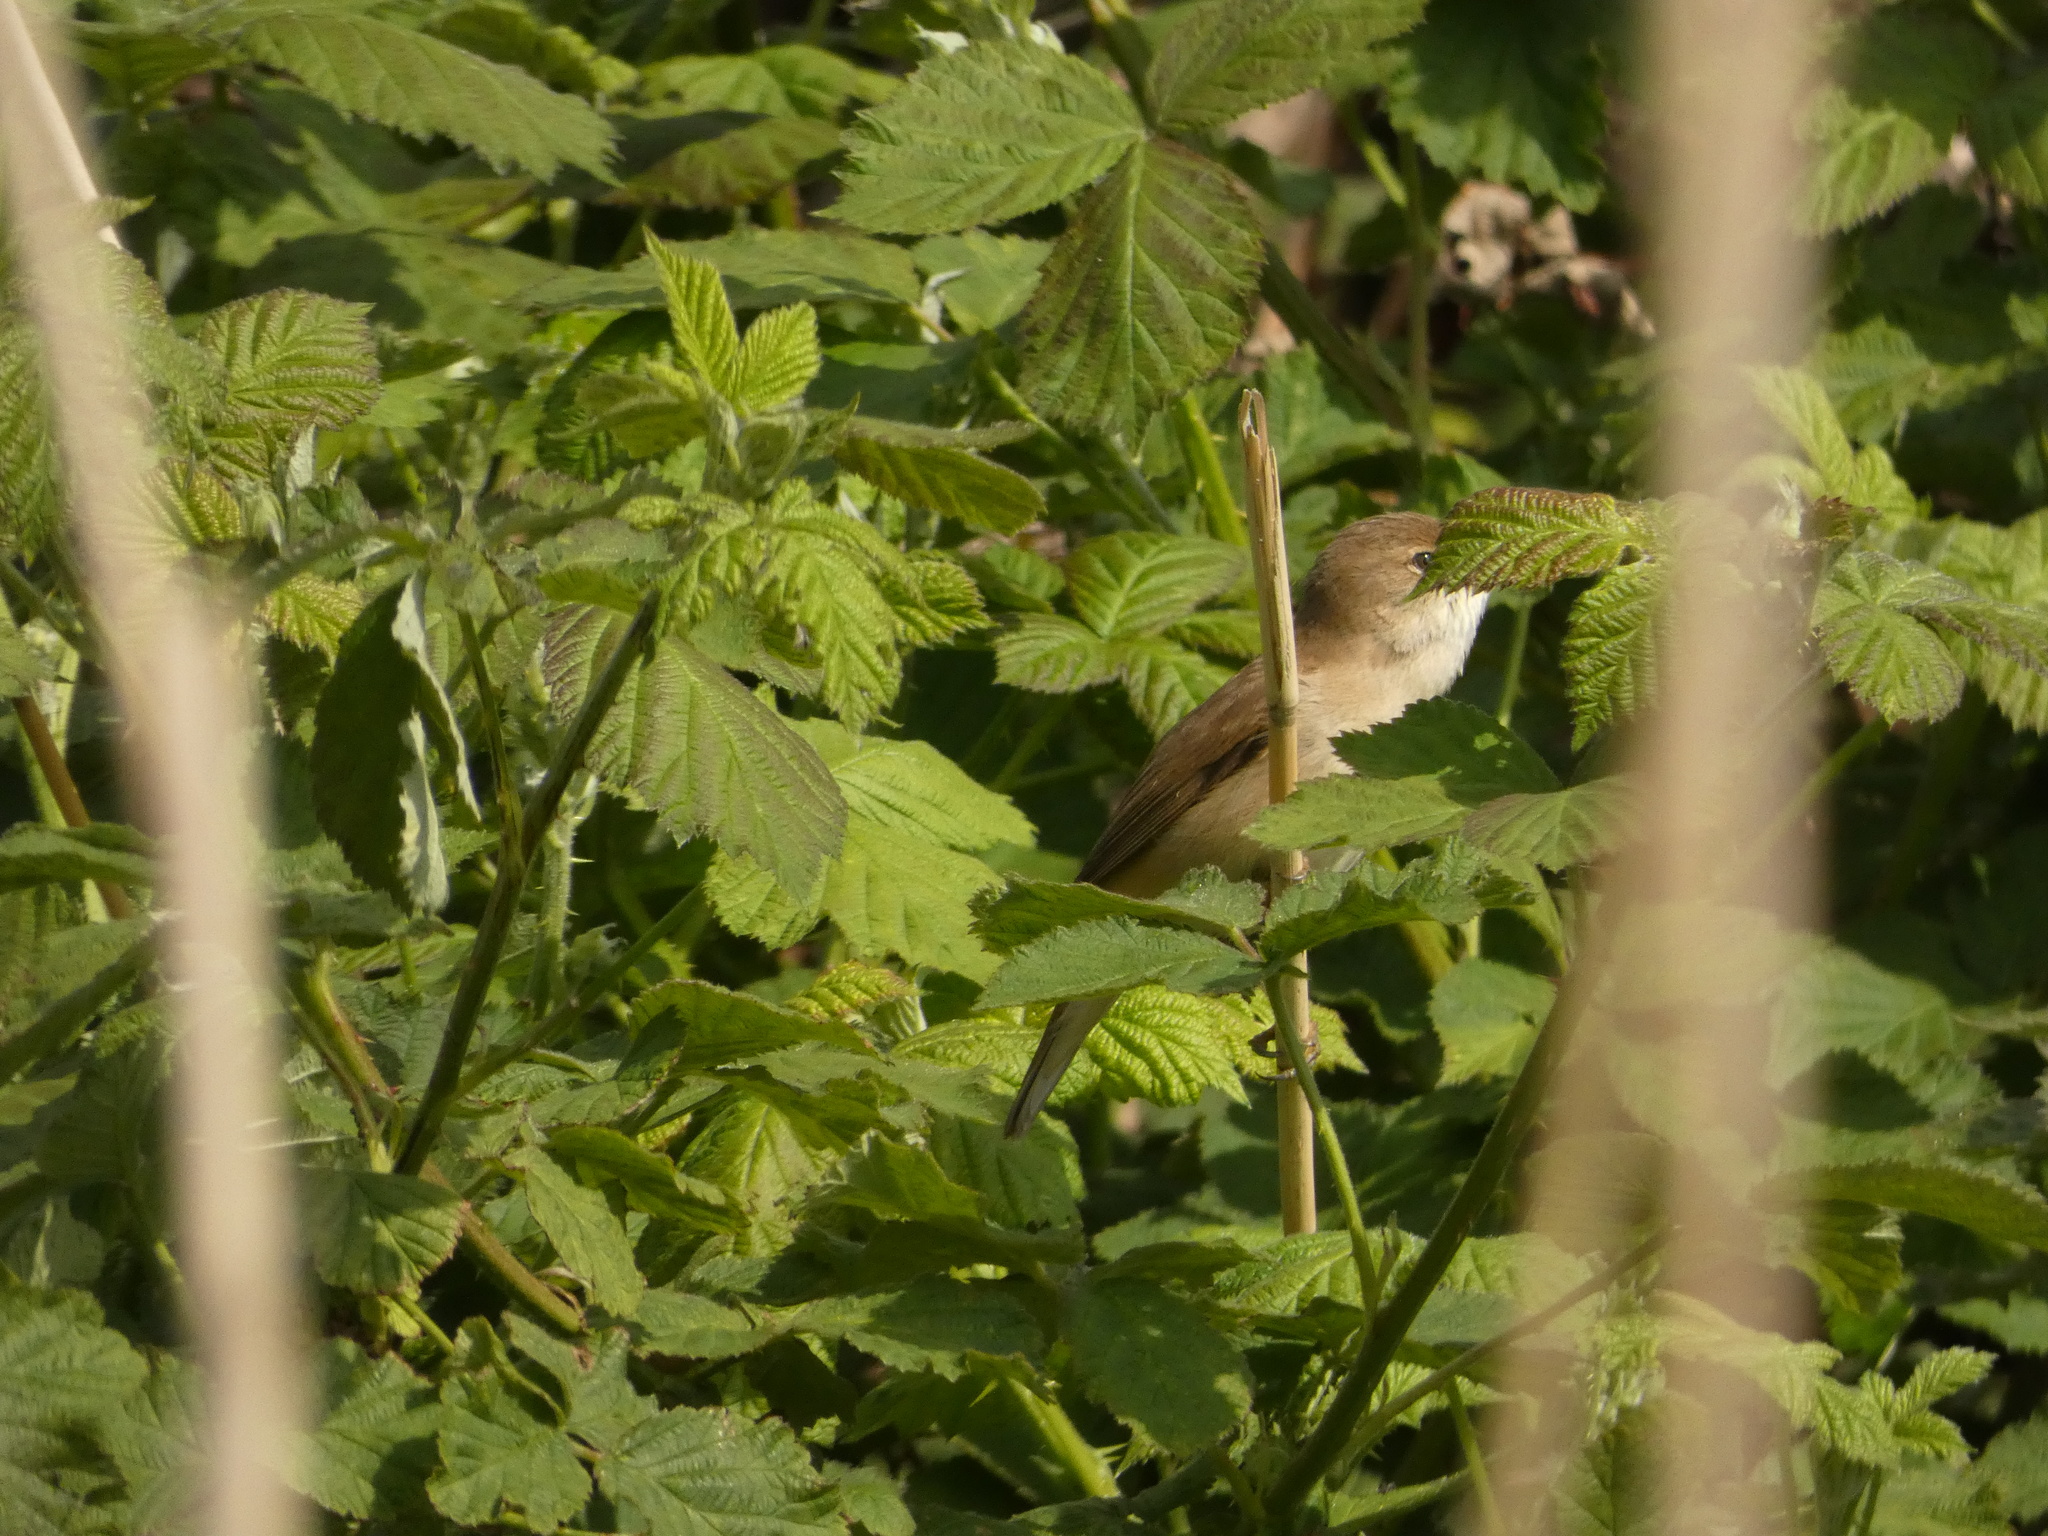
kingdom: Animalia
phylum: Chordata
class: Aves
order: Passeriformes
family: Acrocephalidae
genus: Acrocephalus
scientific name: Acrocephalus scirpaceus
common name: Eurasian reed warbler
